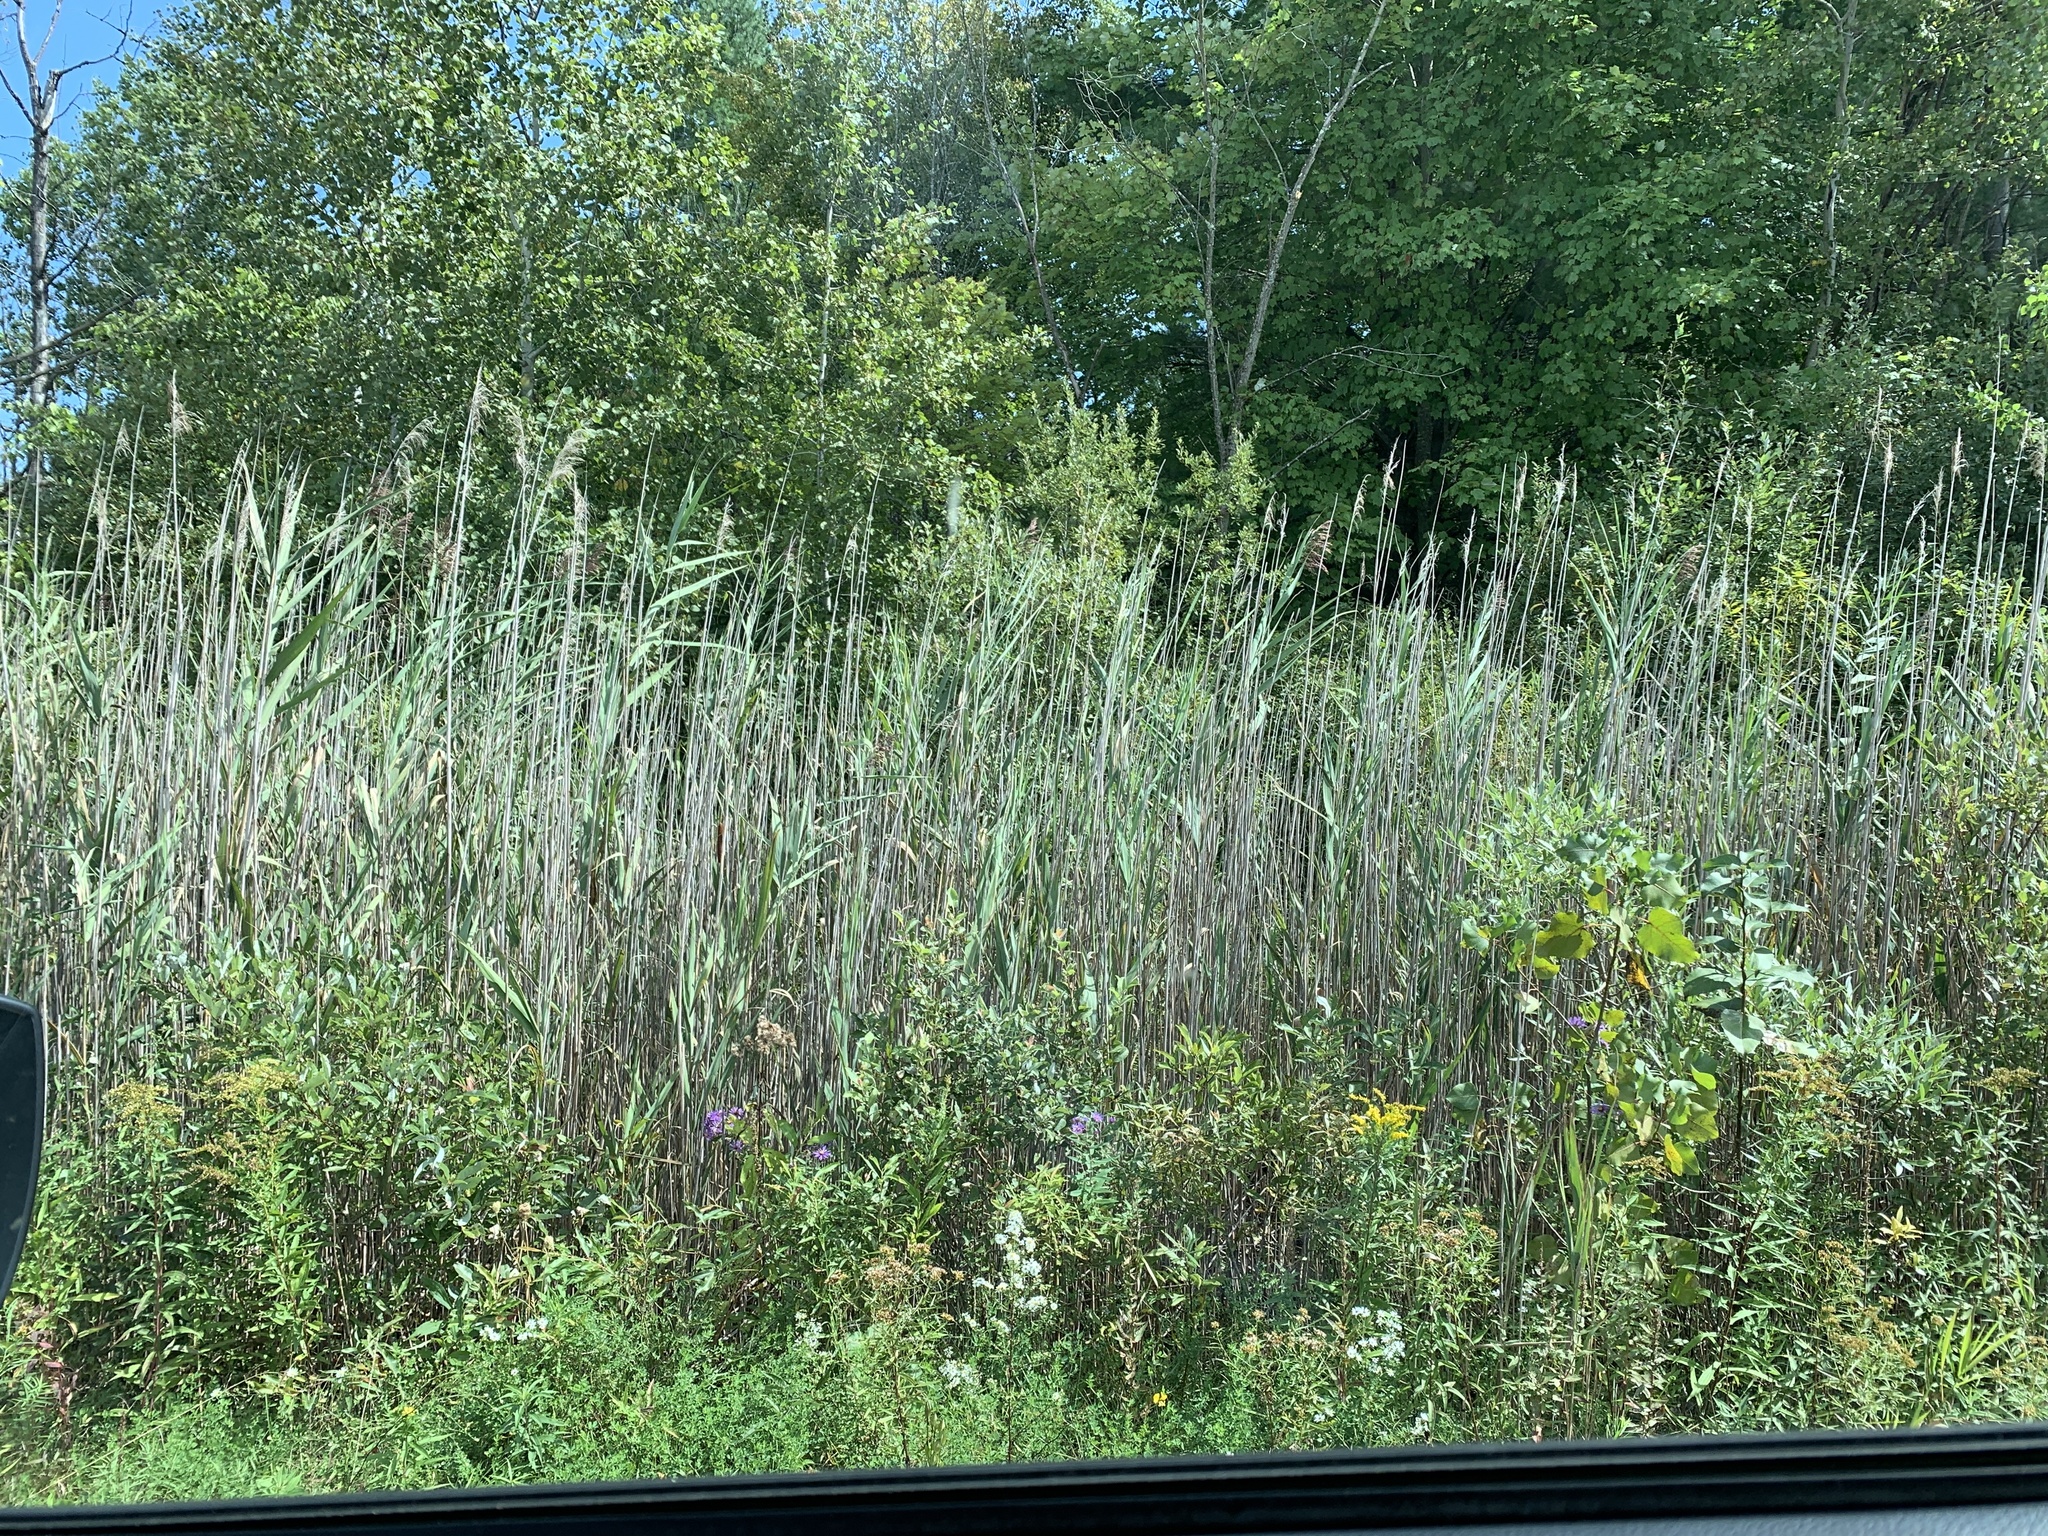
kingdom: Plantae
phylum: Tracheophyta
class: Liliopsida
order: Poales
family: Poaceae
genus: Phragmites
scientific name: Phragmites australis
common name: Common reed
